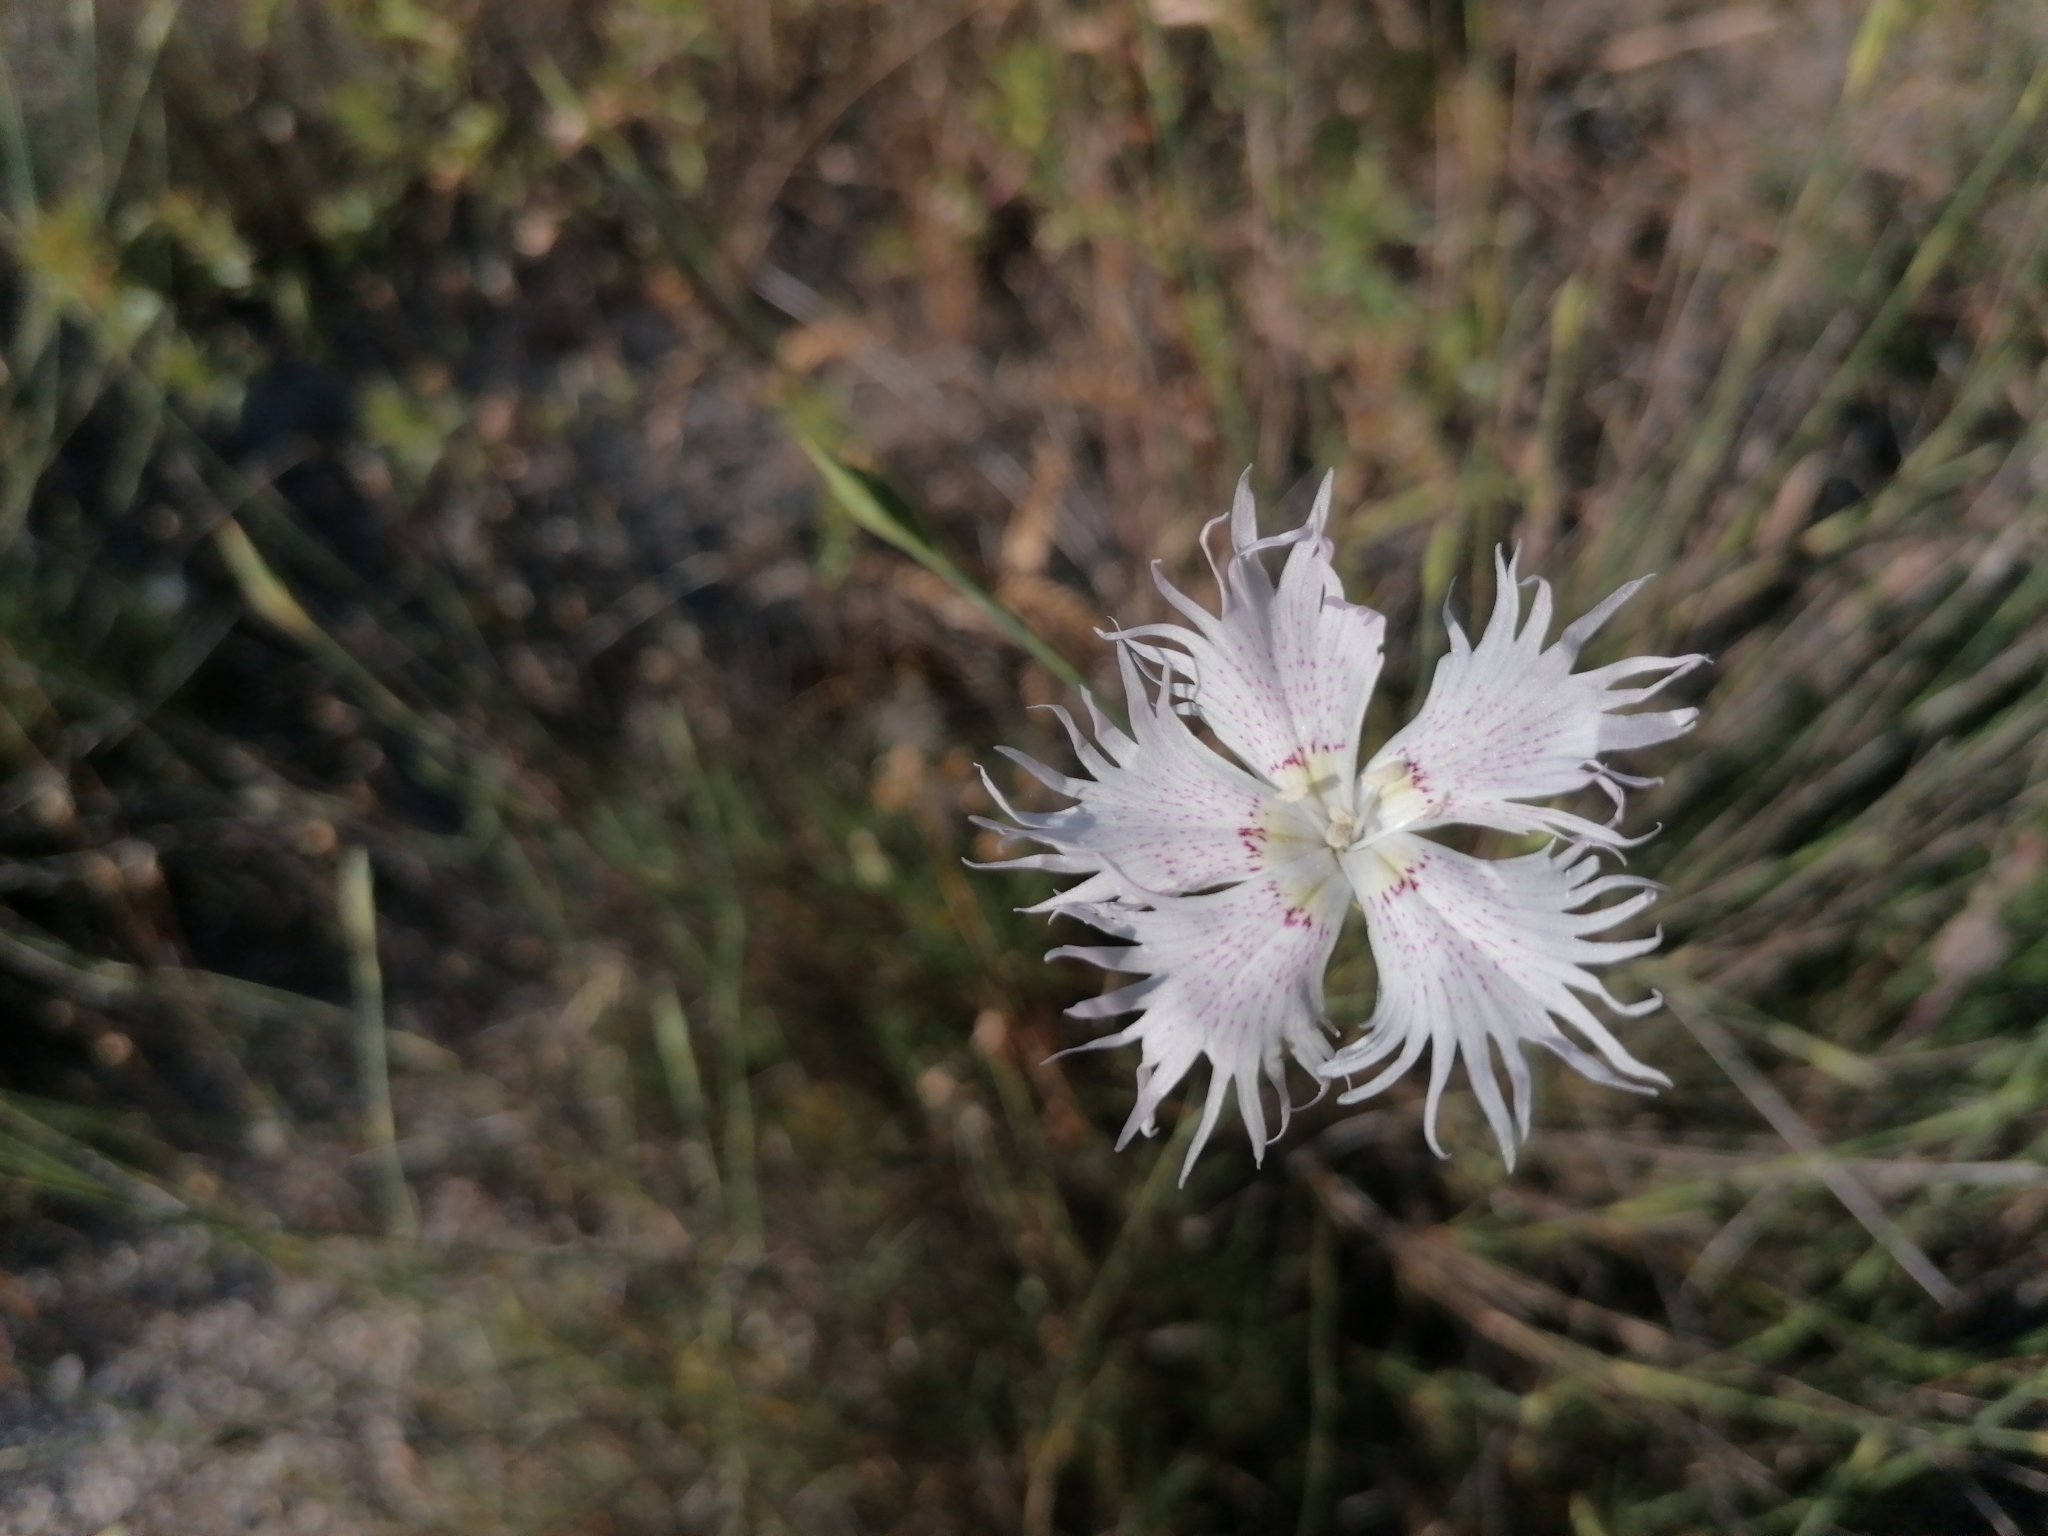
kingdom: Plantae
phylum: Tracheophyta
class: Magnoliopsida
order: Caryophyllales
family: Caryophyllaceae
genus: Dianthus
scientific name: Dianthus broteri
